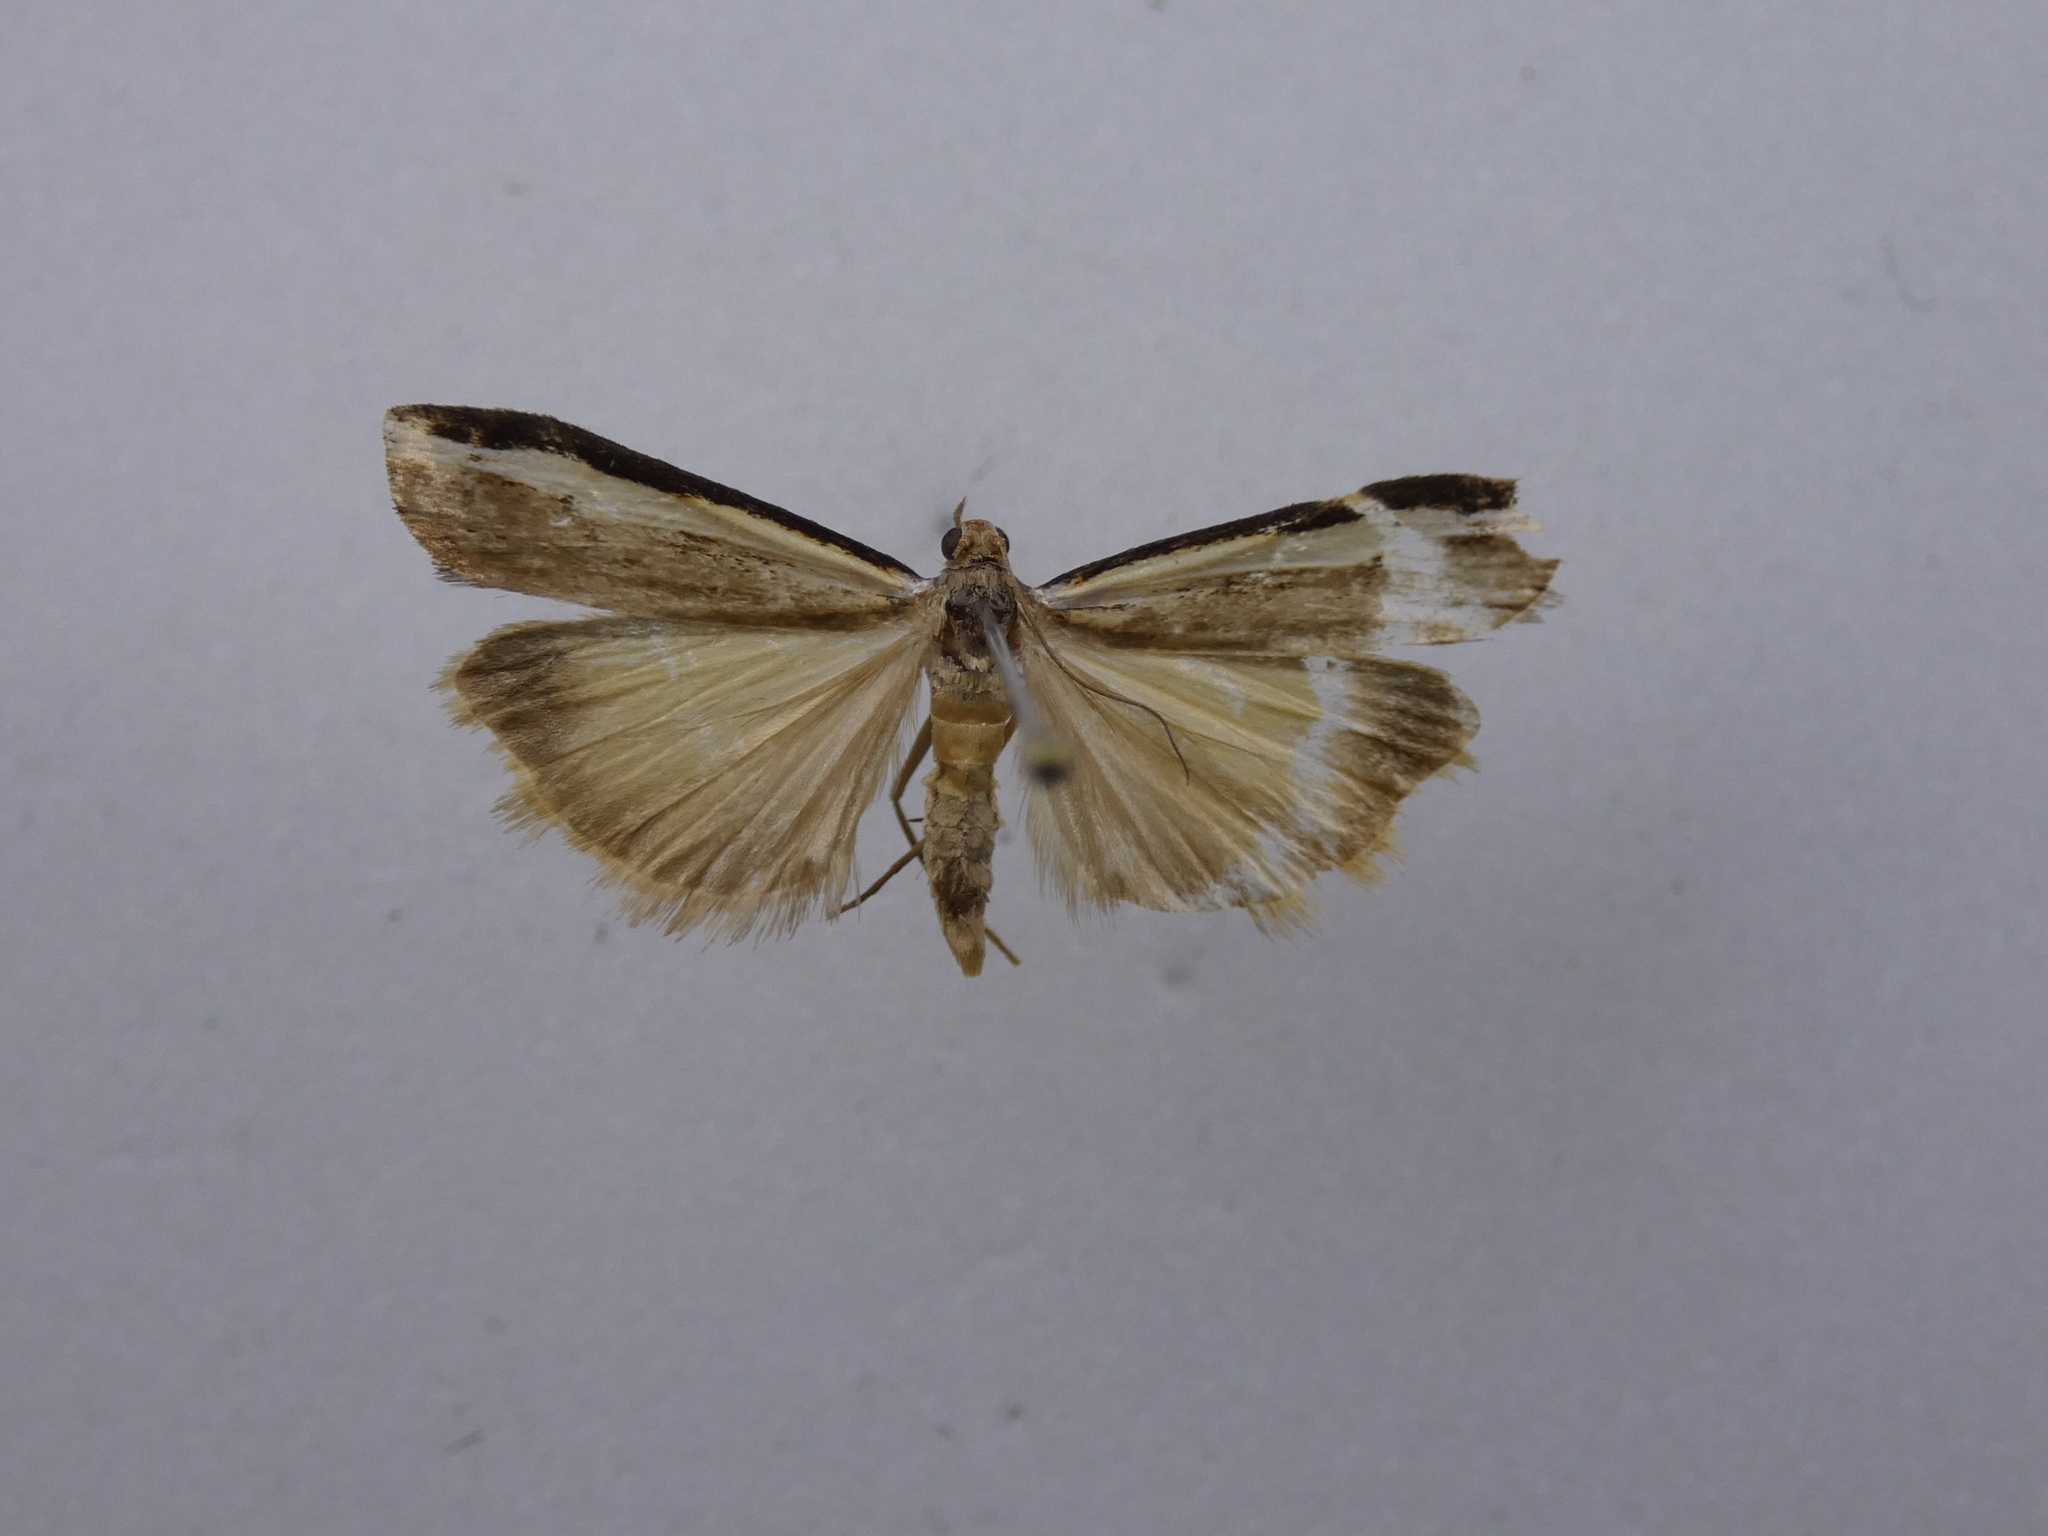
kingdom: Animalia
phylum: Arthropoda
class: Insecta
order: Lepidoptera
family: Crambidae
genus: Orocrambus
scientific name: Orocrambus flexuosellus
